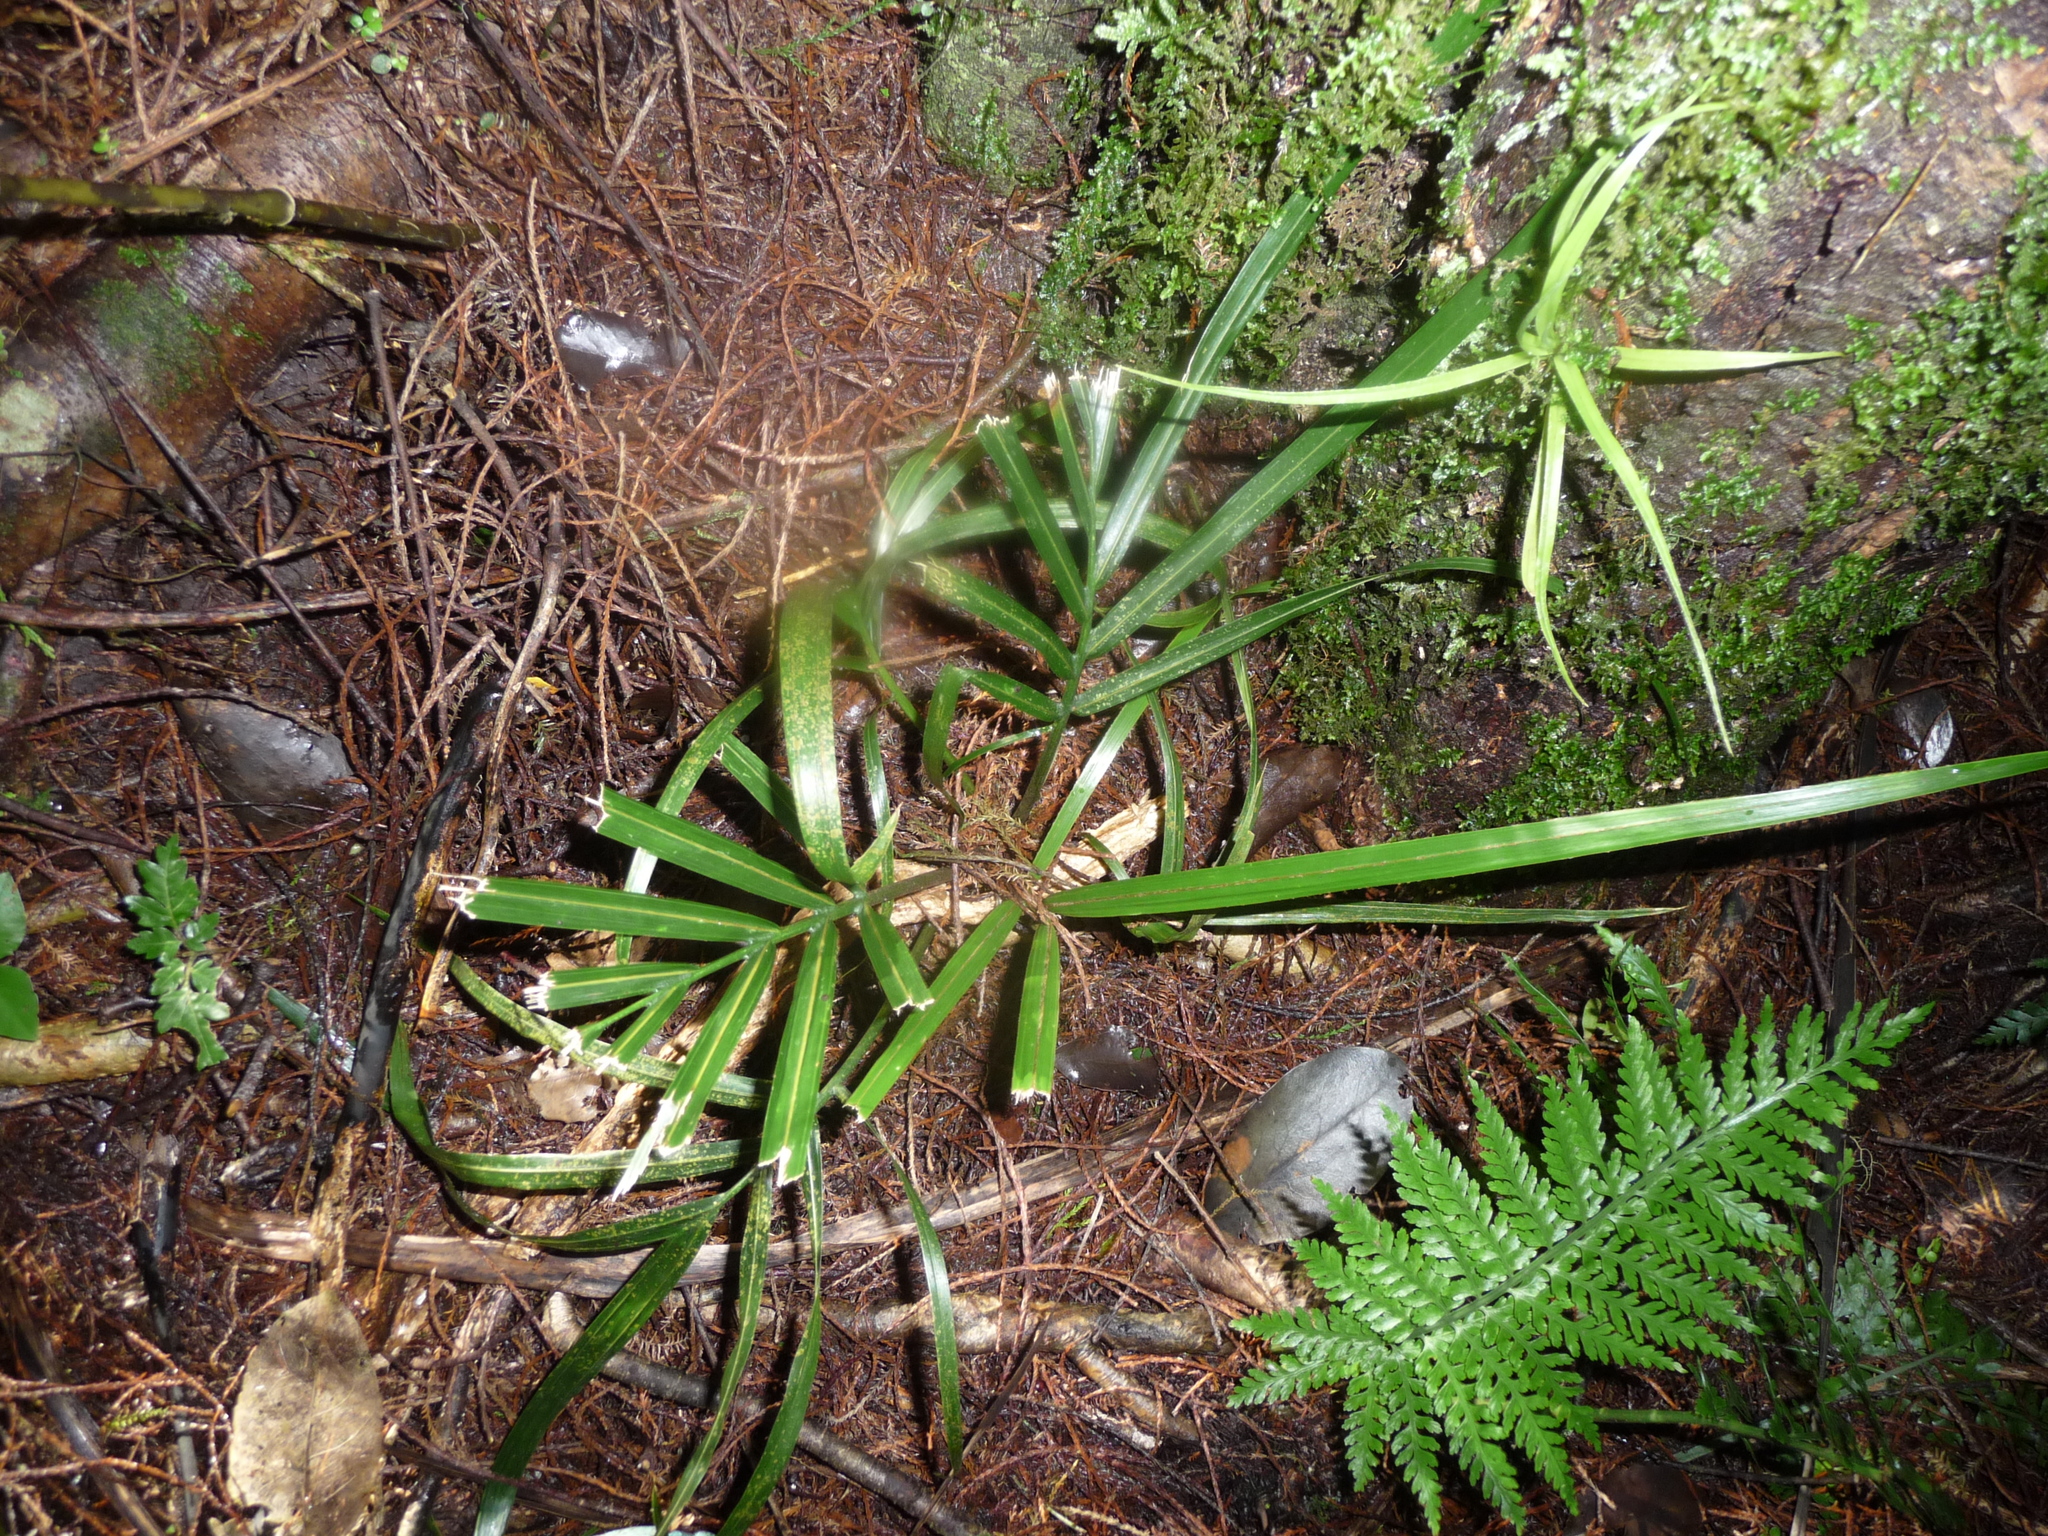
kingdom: Plantae
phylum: Tracheophyta
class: Liliopsida
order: Arecales
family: Arecaceae
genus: Rhopalostylis
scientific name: Rhopalostylis sapida
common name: Feather-duster palm
